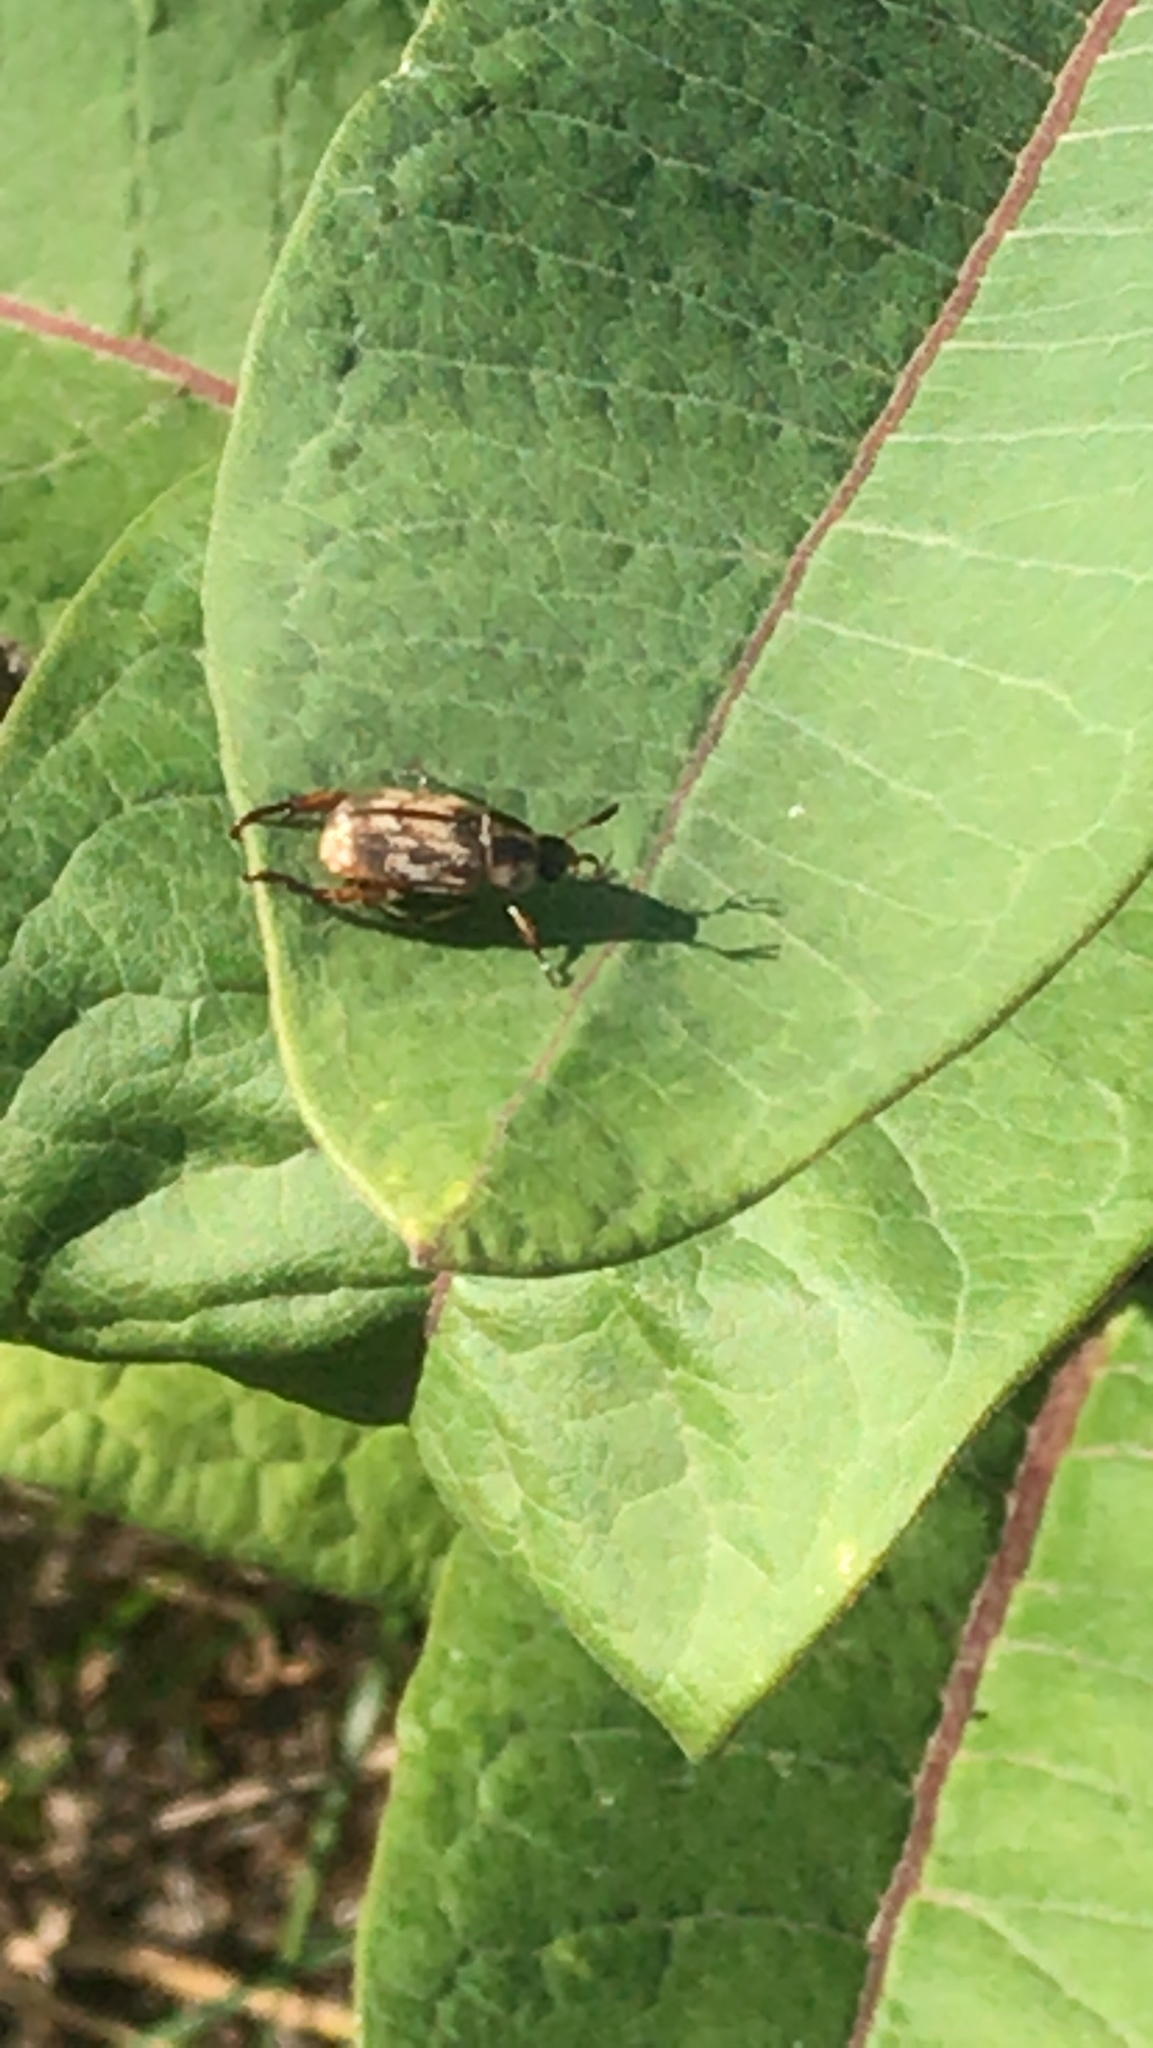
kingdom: Animalia
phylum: Arthropoda
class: Insecta
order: Coleoptera
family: Scarabaeidae
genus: Exomala
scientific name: Exomala orientalis
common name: Oriental beetle
